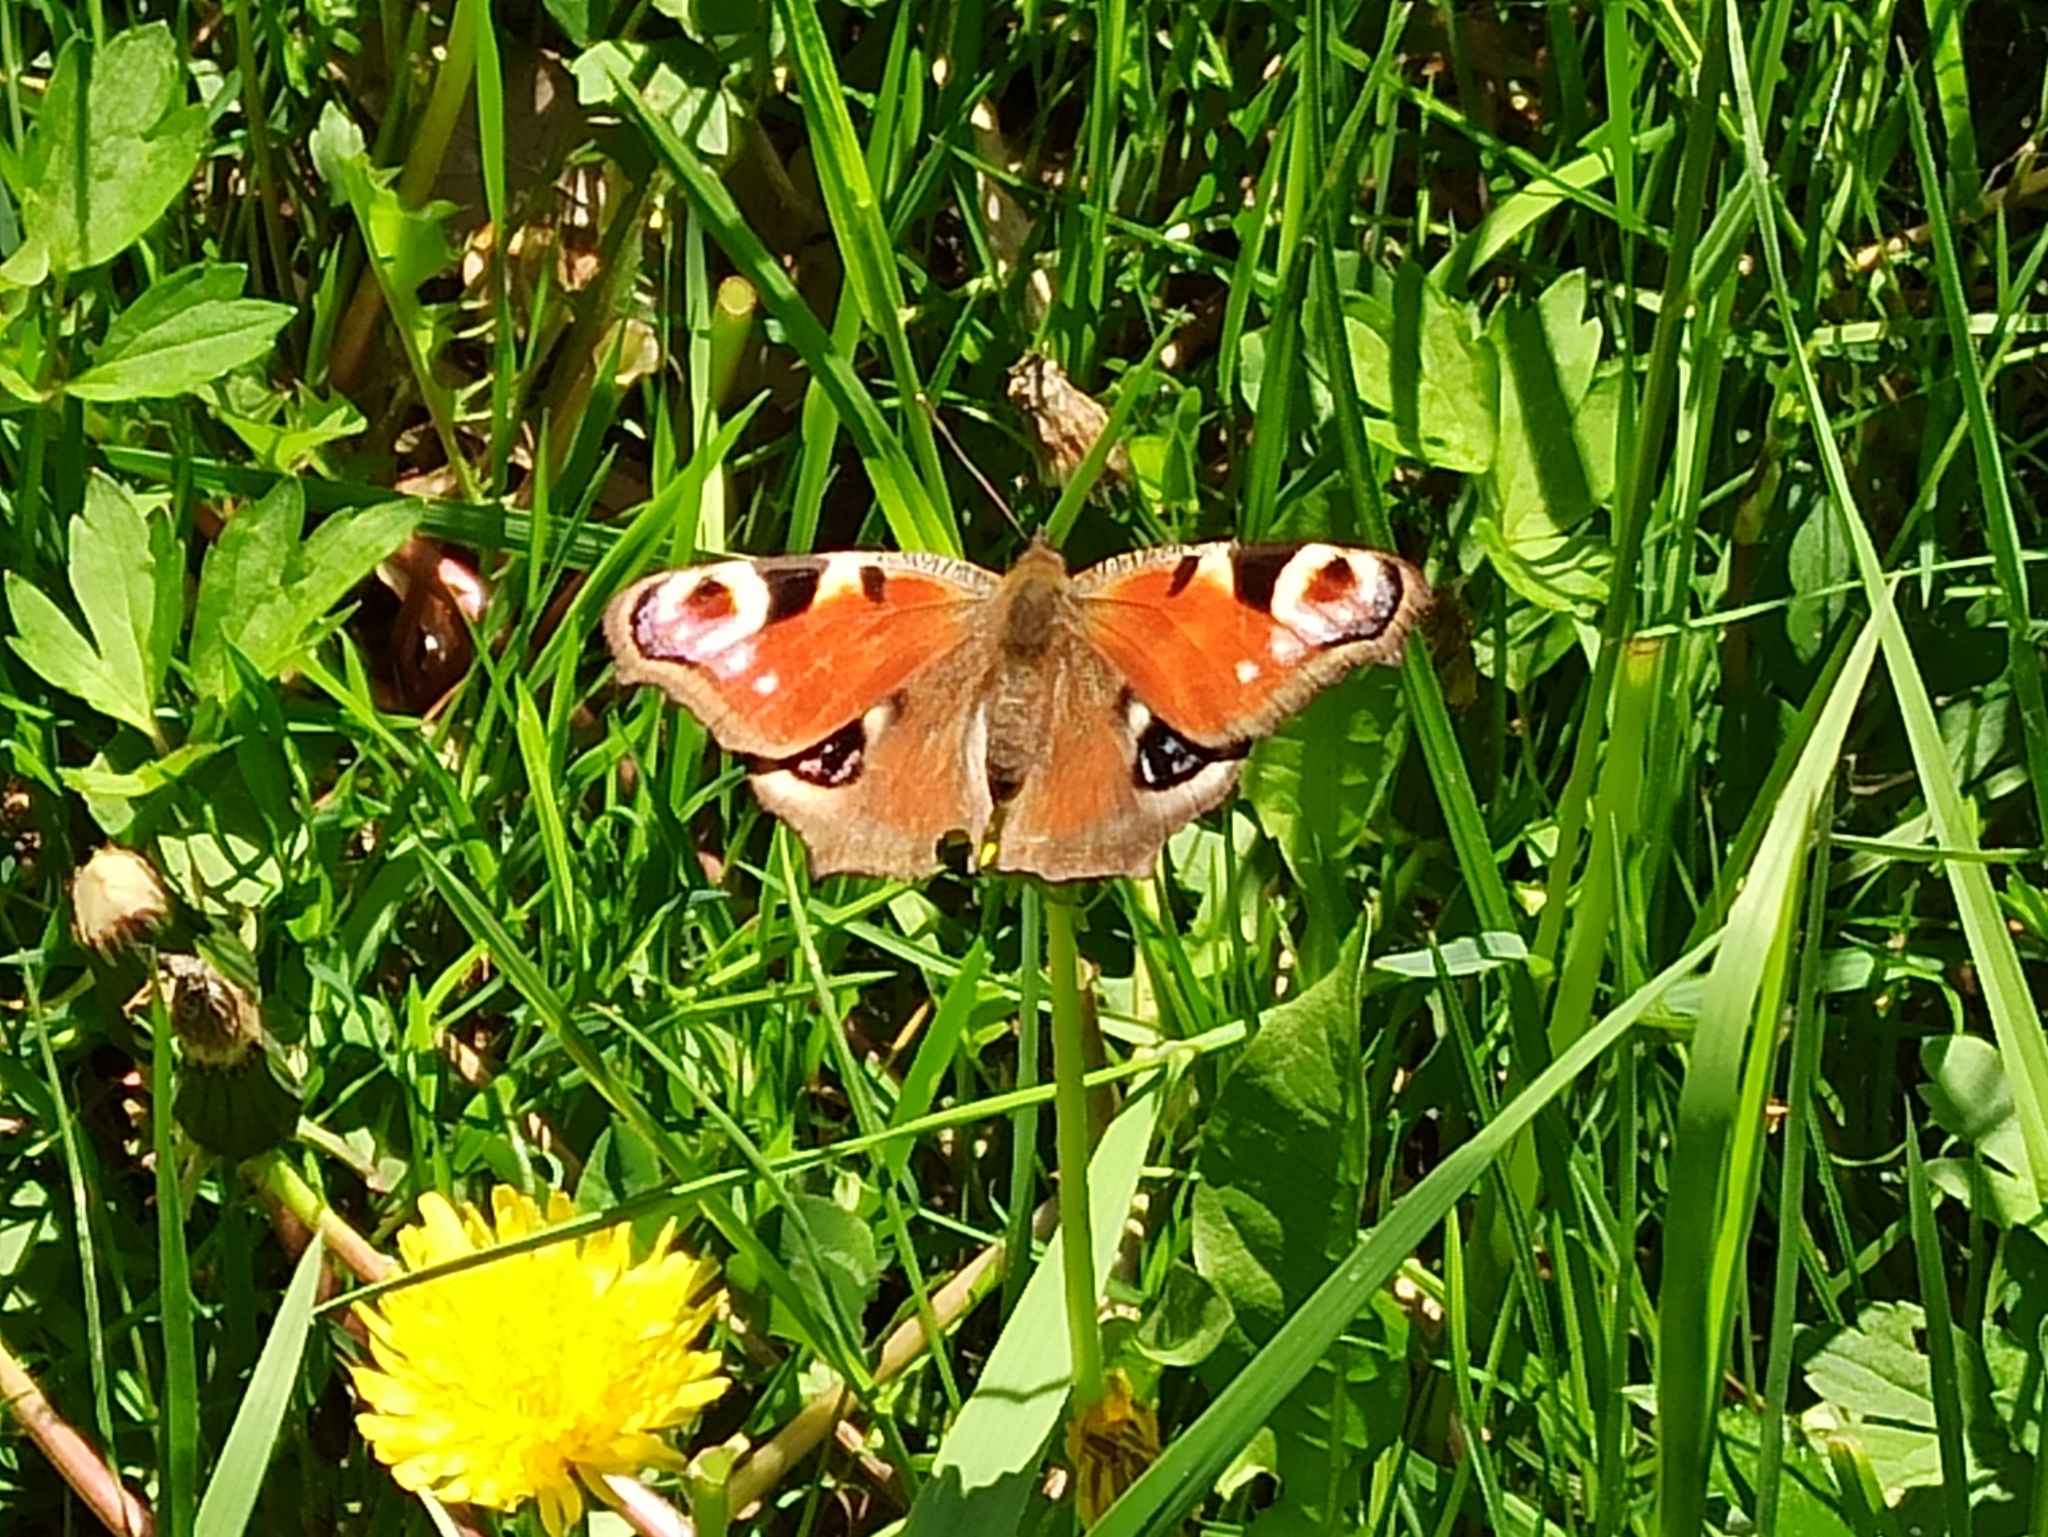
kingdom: Animalia
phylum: Arthropoda
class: Insecta
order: Lepidoptera
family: Nymphalidae
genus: Aglais
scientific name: Aglais io
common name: Peacock
